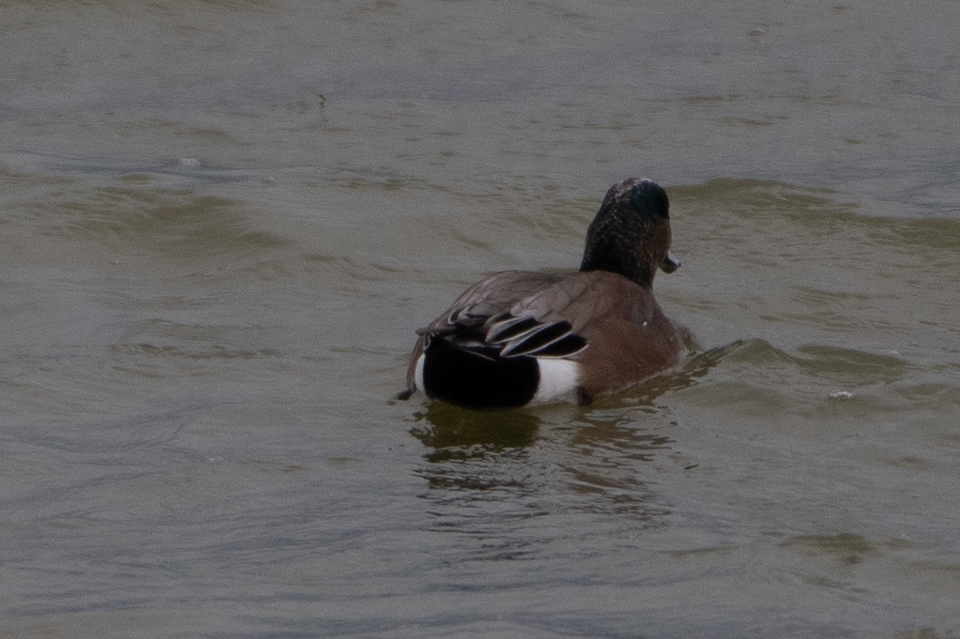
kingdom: Animalia
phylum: Chordata
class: Aves
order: Anseriformes
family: Anatidae
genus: Mareca
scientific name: Mareca americana
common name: American wigeon
